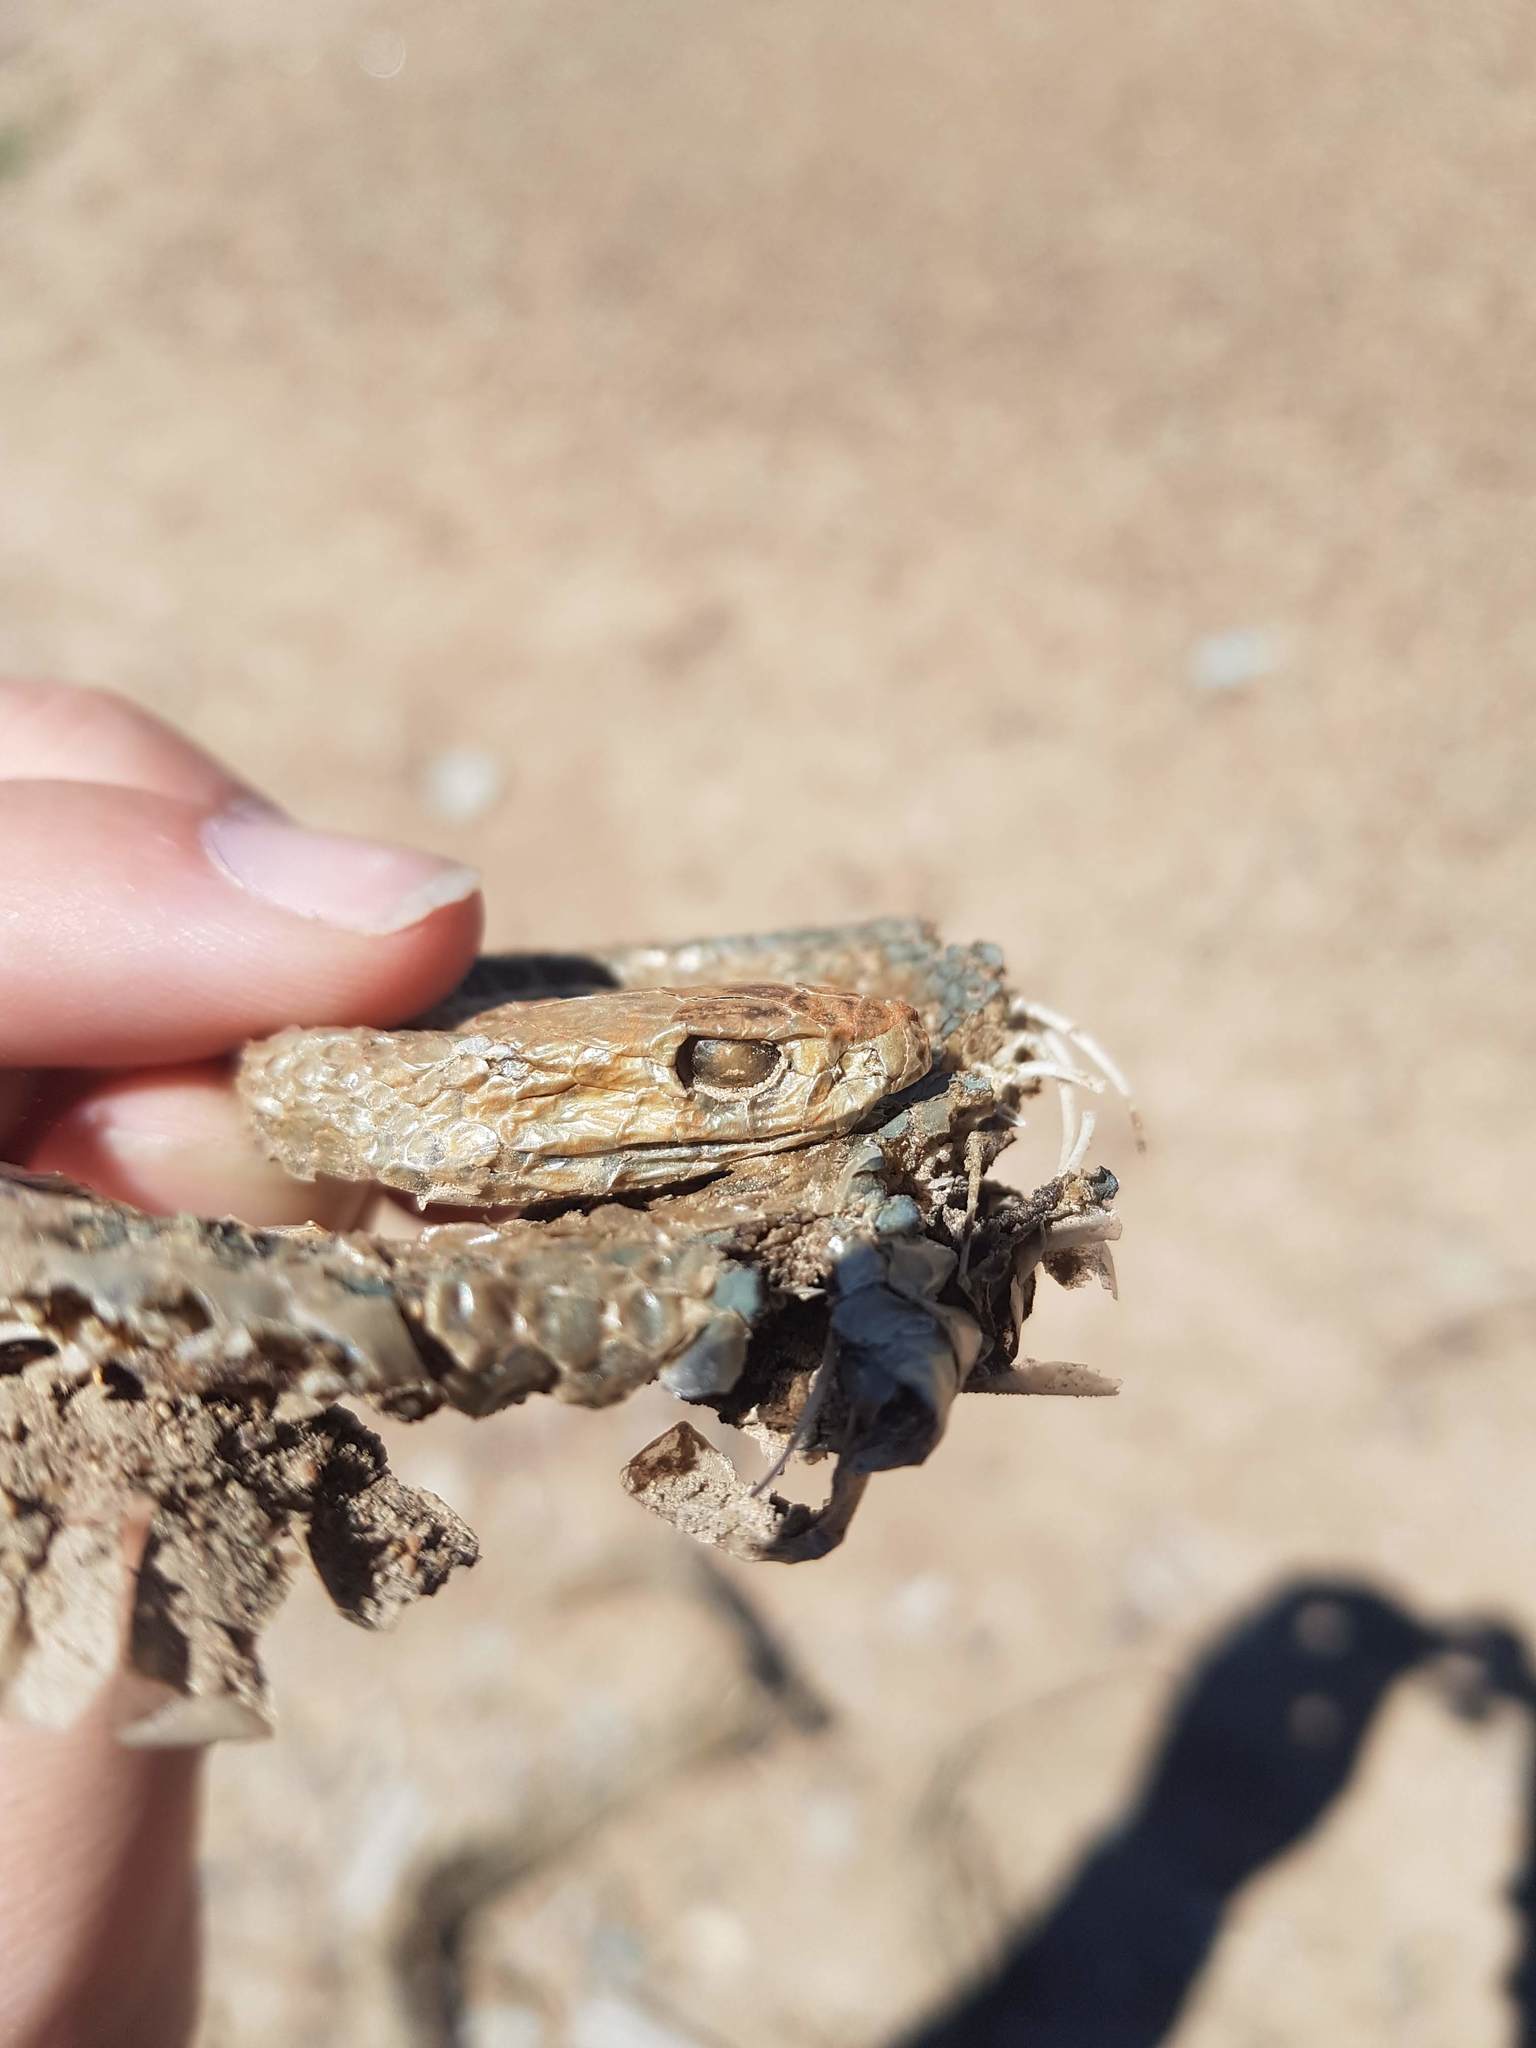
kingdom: Animalia
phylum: Chordata
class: Squamata
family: Elapidae
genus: Pseudonaja
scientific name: Pseudonaja textilis
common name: Eastern brown snake
